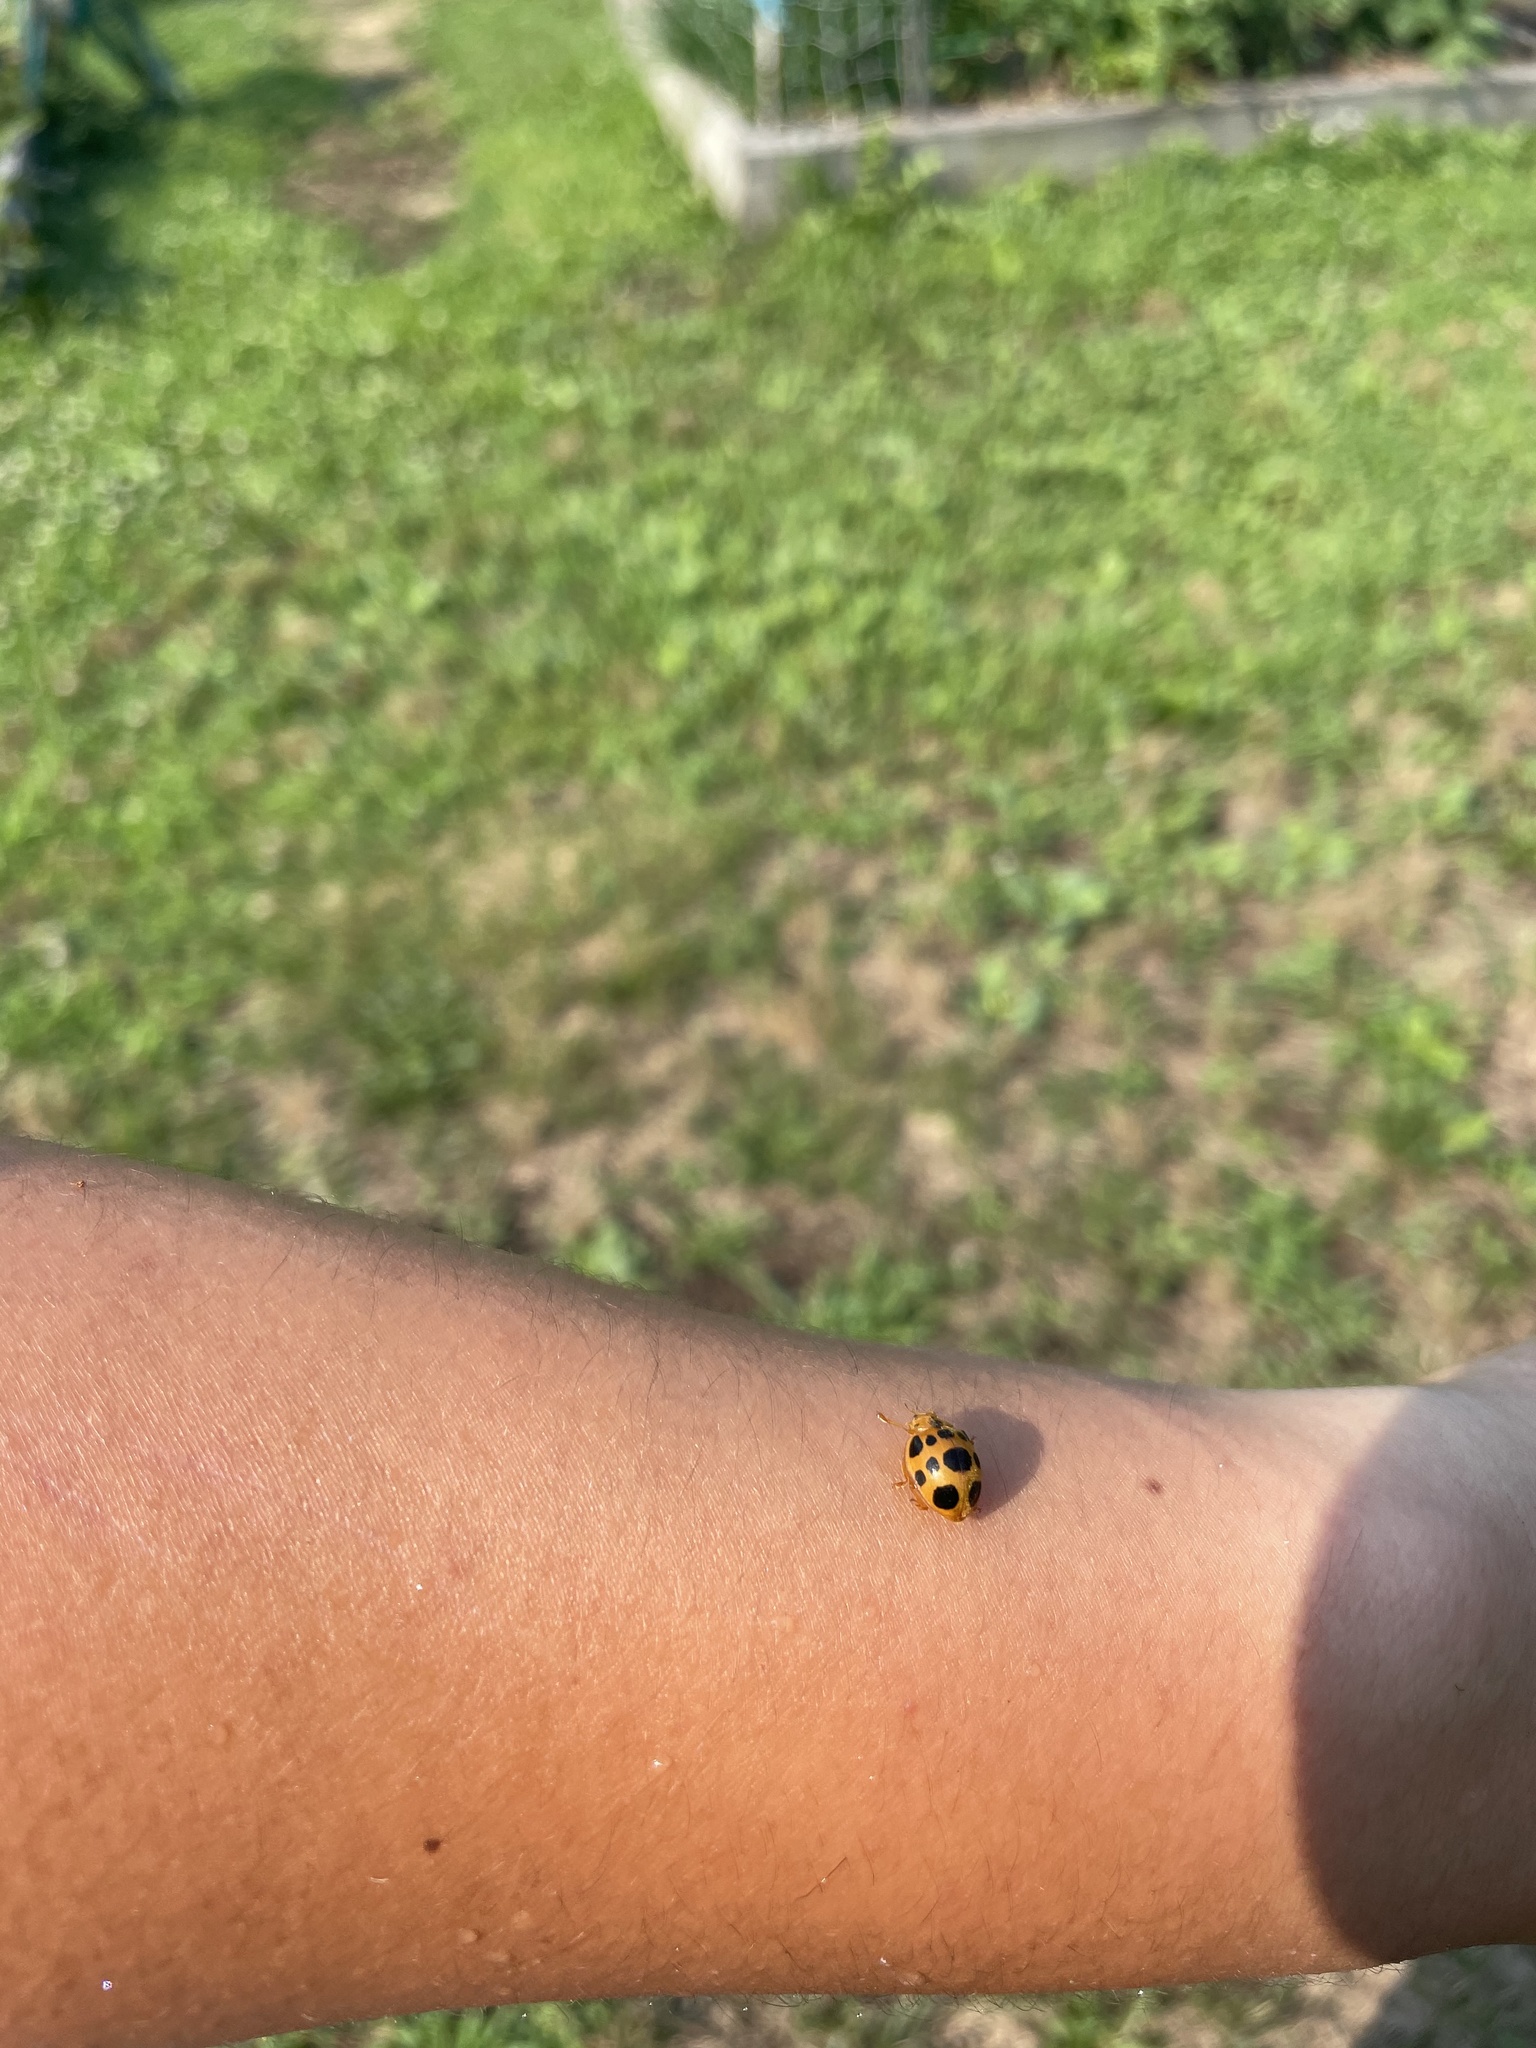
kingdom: Animalia
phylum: Arthropoda
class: Insecta
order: Coleoptera
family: Coccinellidae
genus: Epilachna
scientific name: Epilachna borealis
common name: Squash beetle
